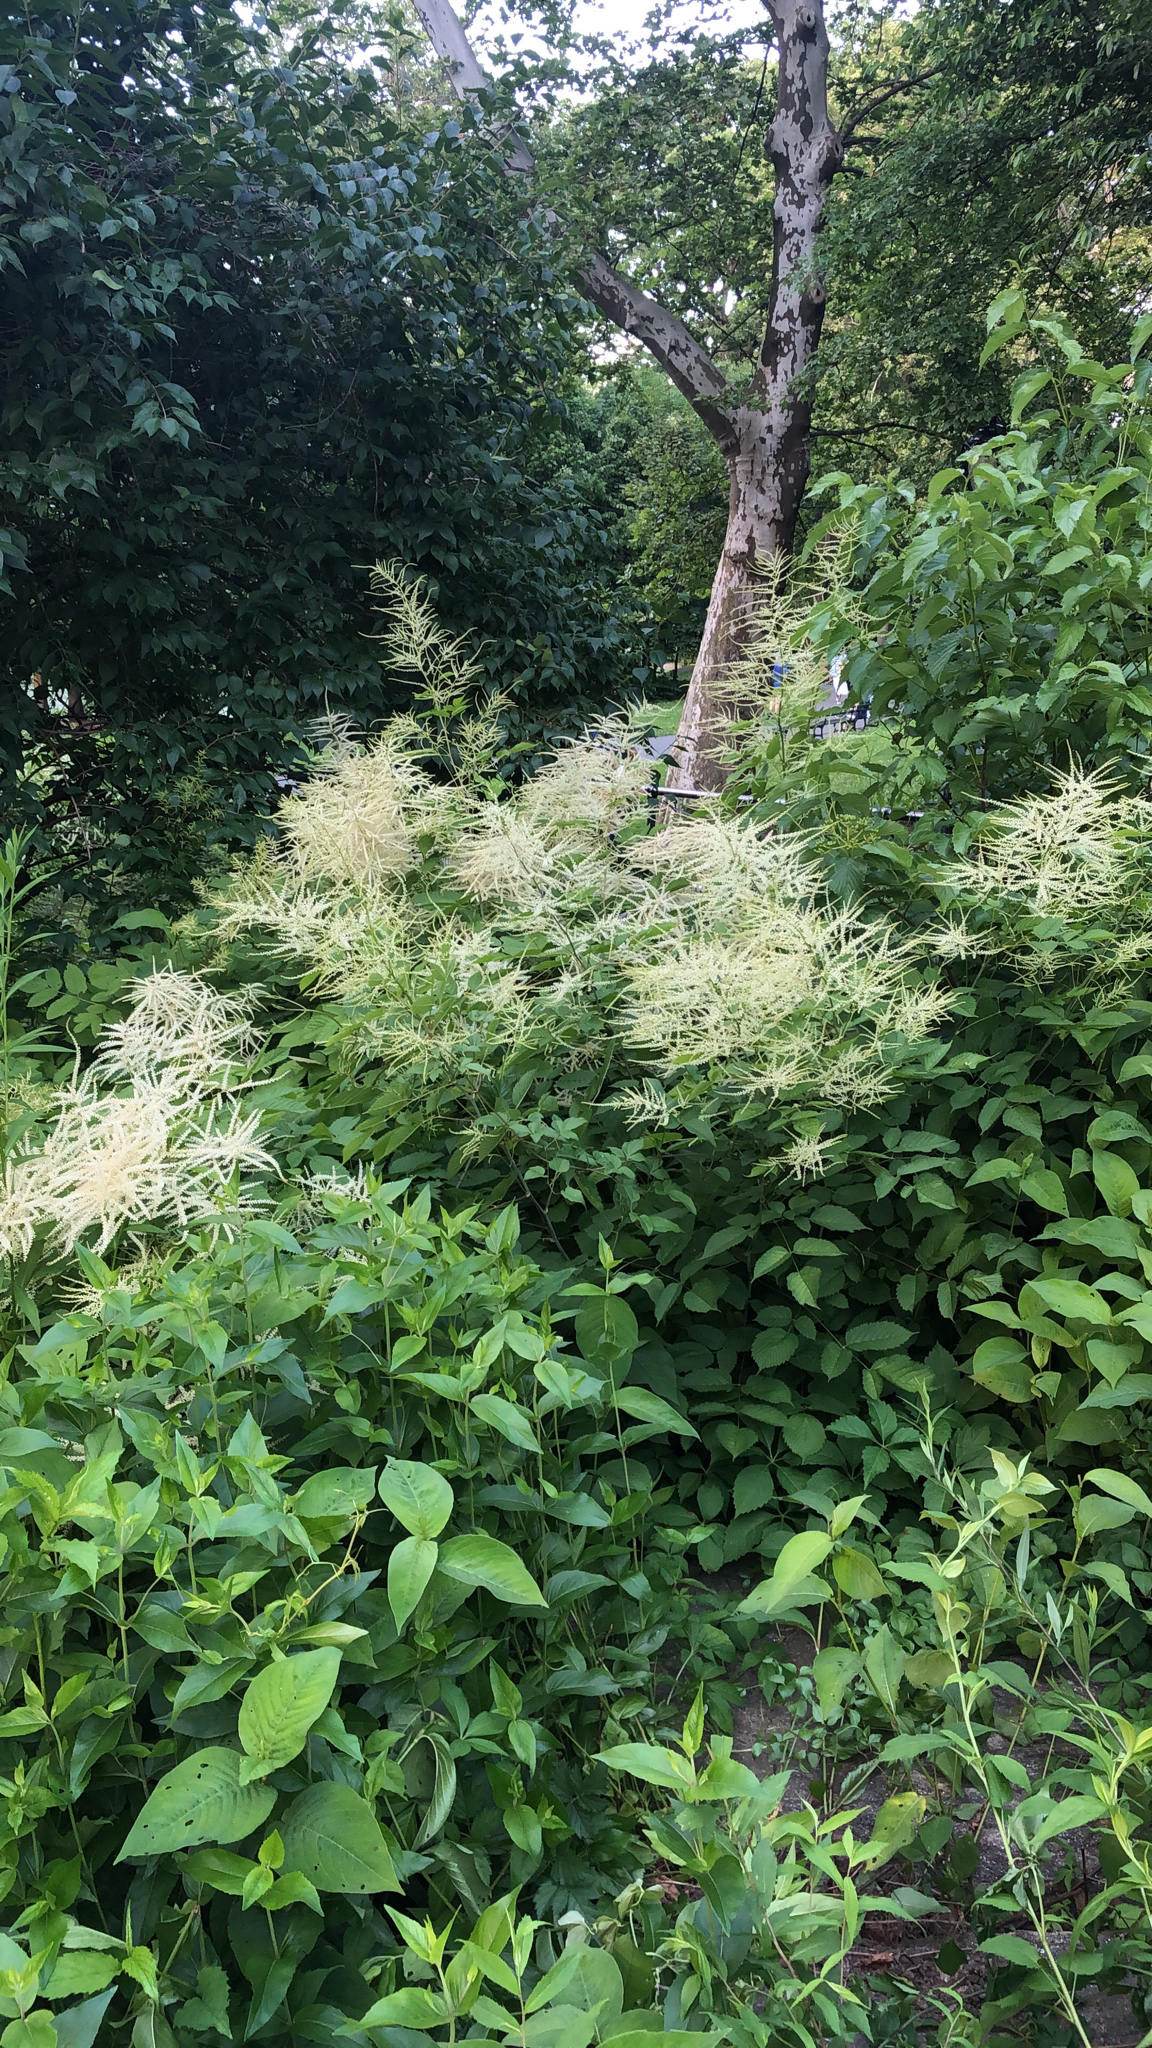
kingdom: Plantae
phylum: Tracheophyta
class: Magnoliopsida
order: Rosales
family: Rosaceae
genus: Aruncus
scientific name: Aruncus dioicus
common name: Buck's-beard
